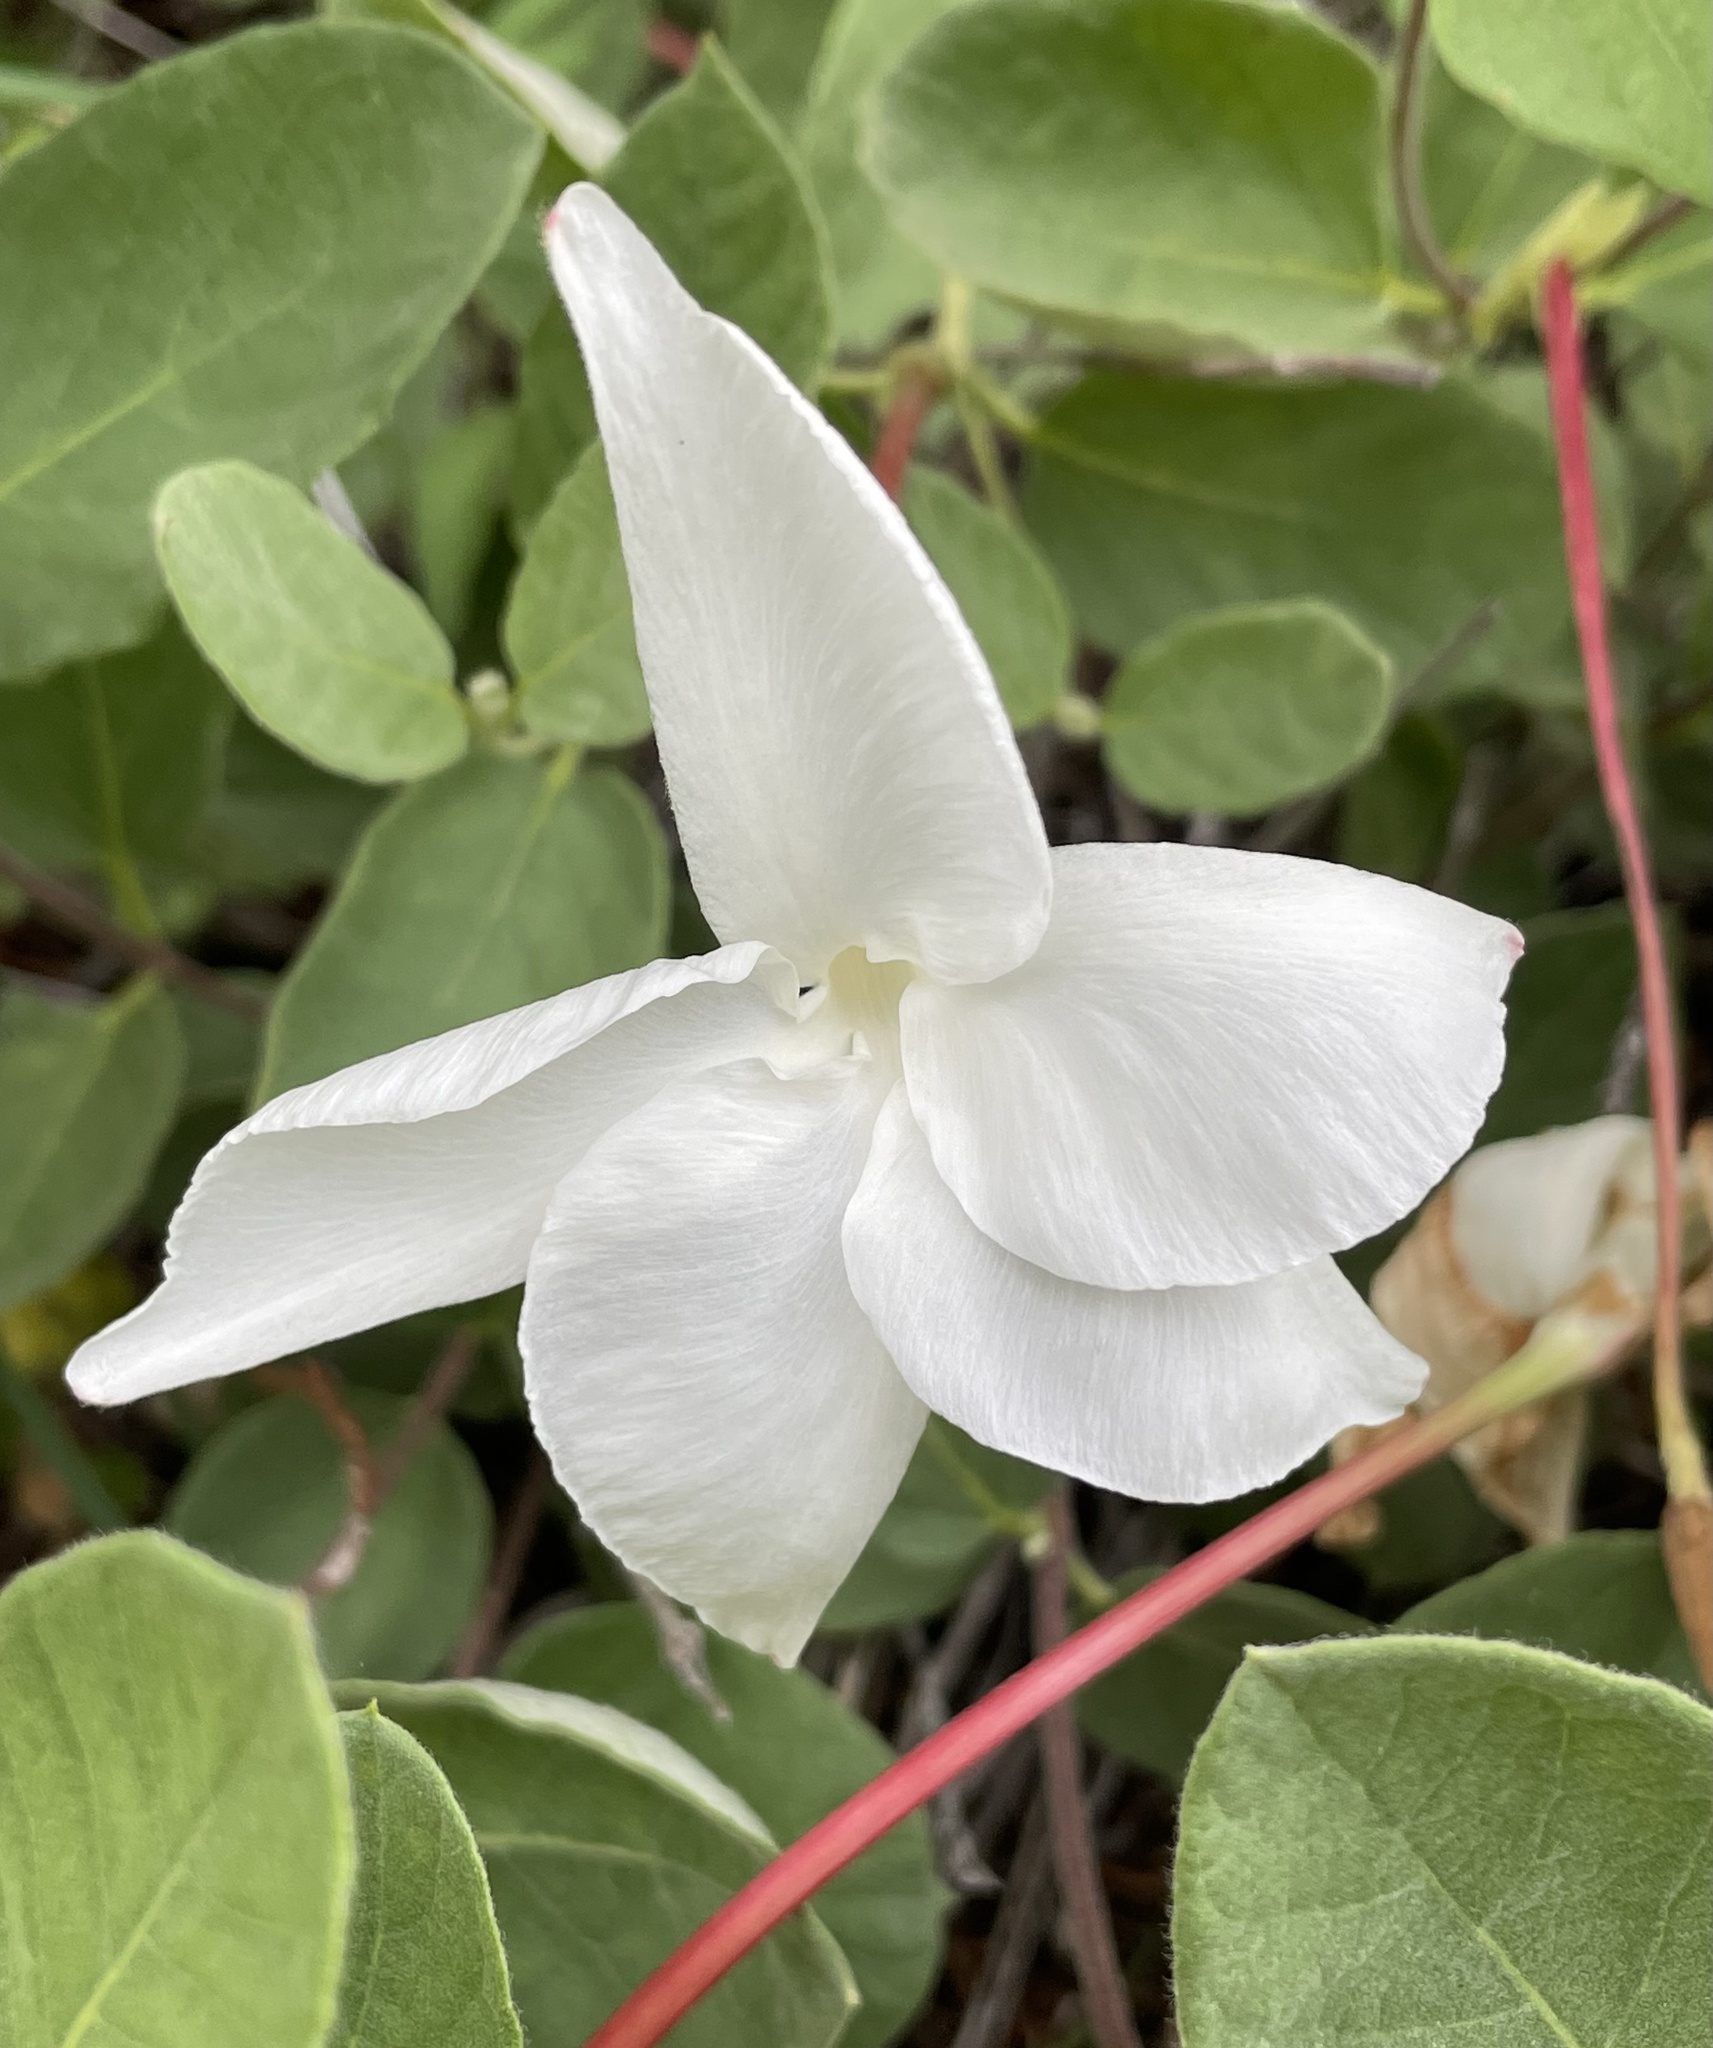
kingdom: Plantae
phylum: Tracheophyta
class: Magnoliopsida
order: Gentianales
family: Apocynaceae
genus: Mandevilla
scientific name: Mandevilla macrosiphon
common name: Plateau rocktrumpet
